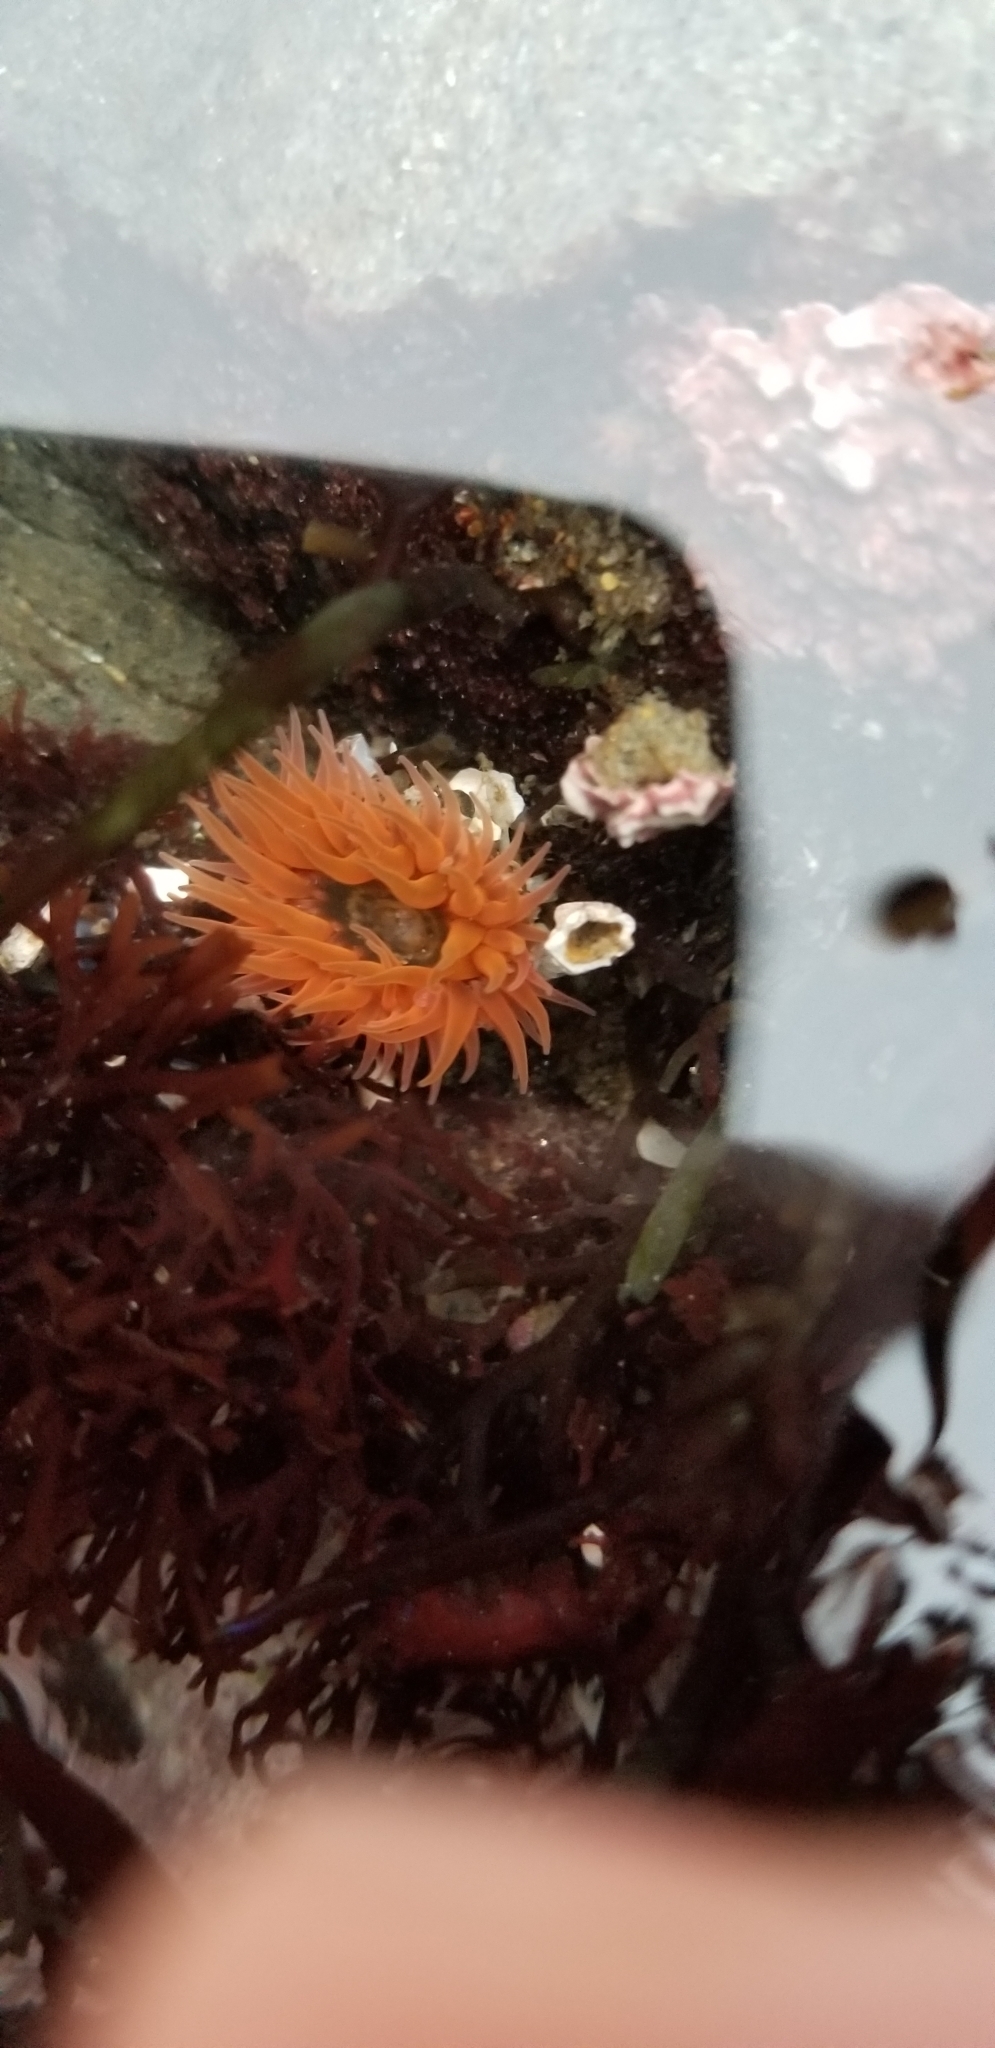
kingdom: Animalia
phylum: Cnidaria
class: Anthozoa
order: Actiniaria
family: Actiniidae
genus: Anthopleura
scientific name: Anthopleura artemisia
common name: Buried sea anemone
